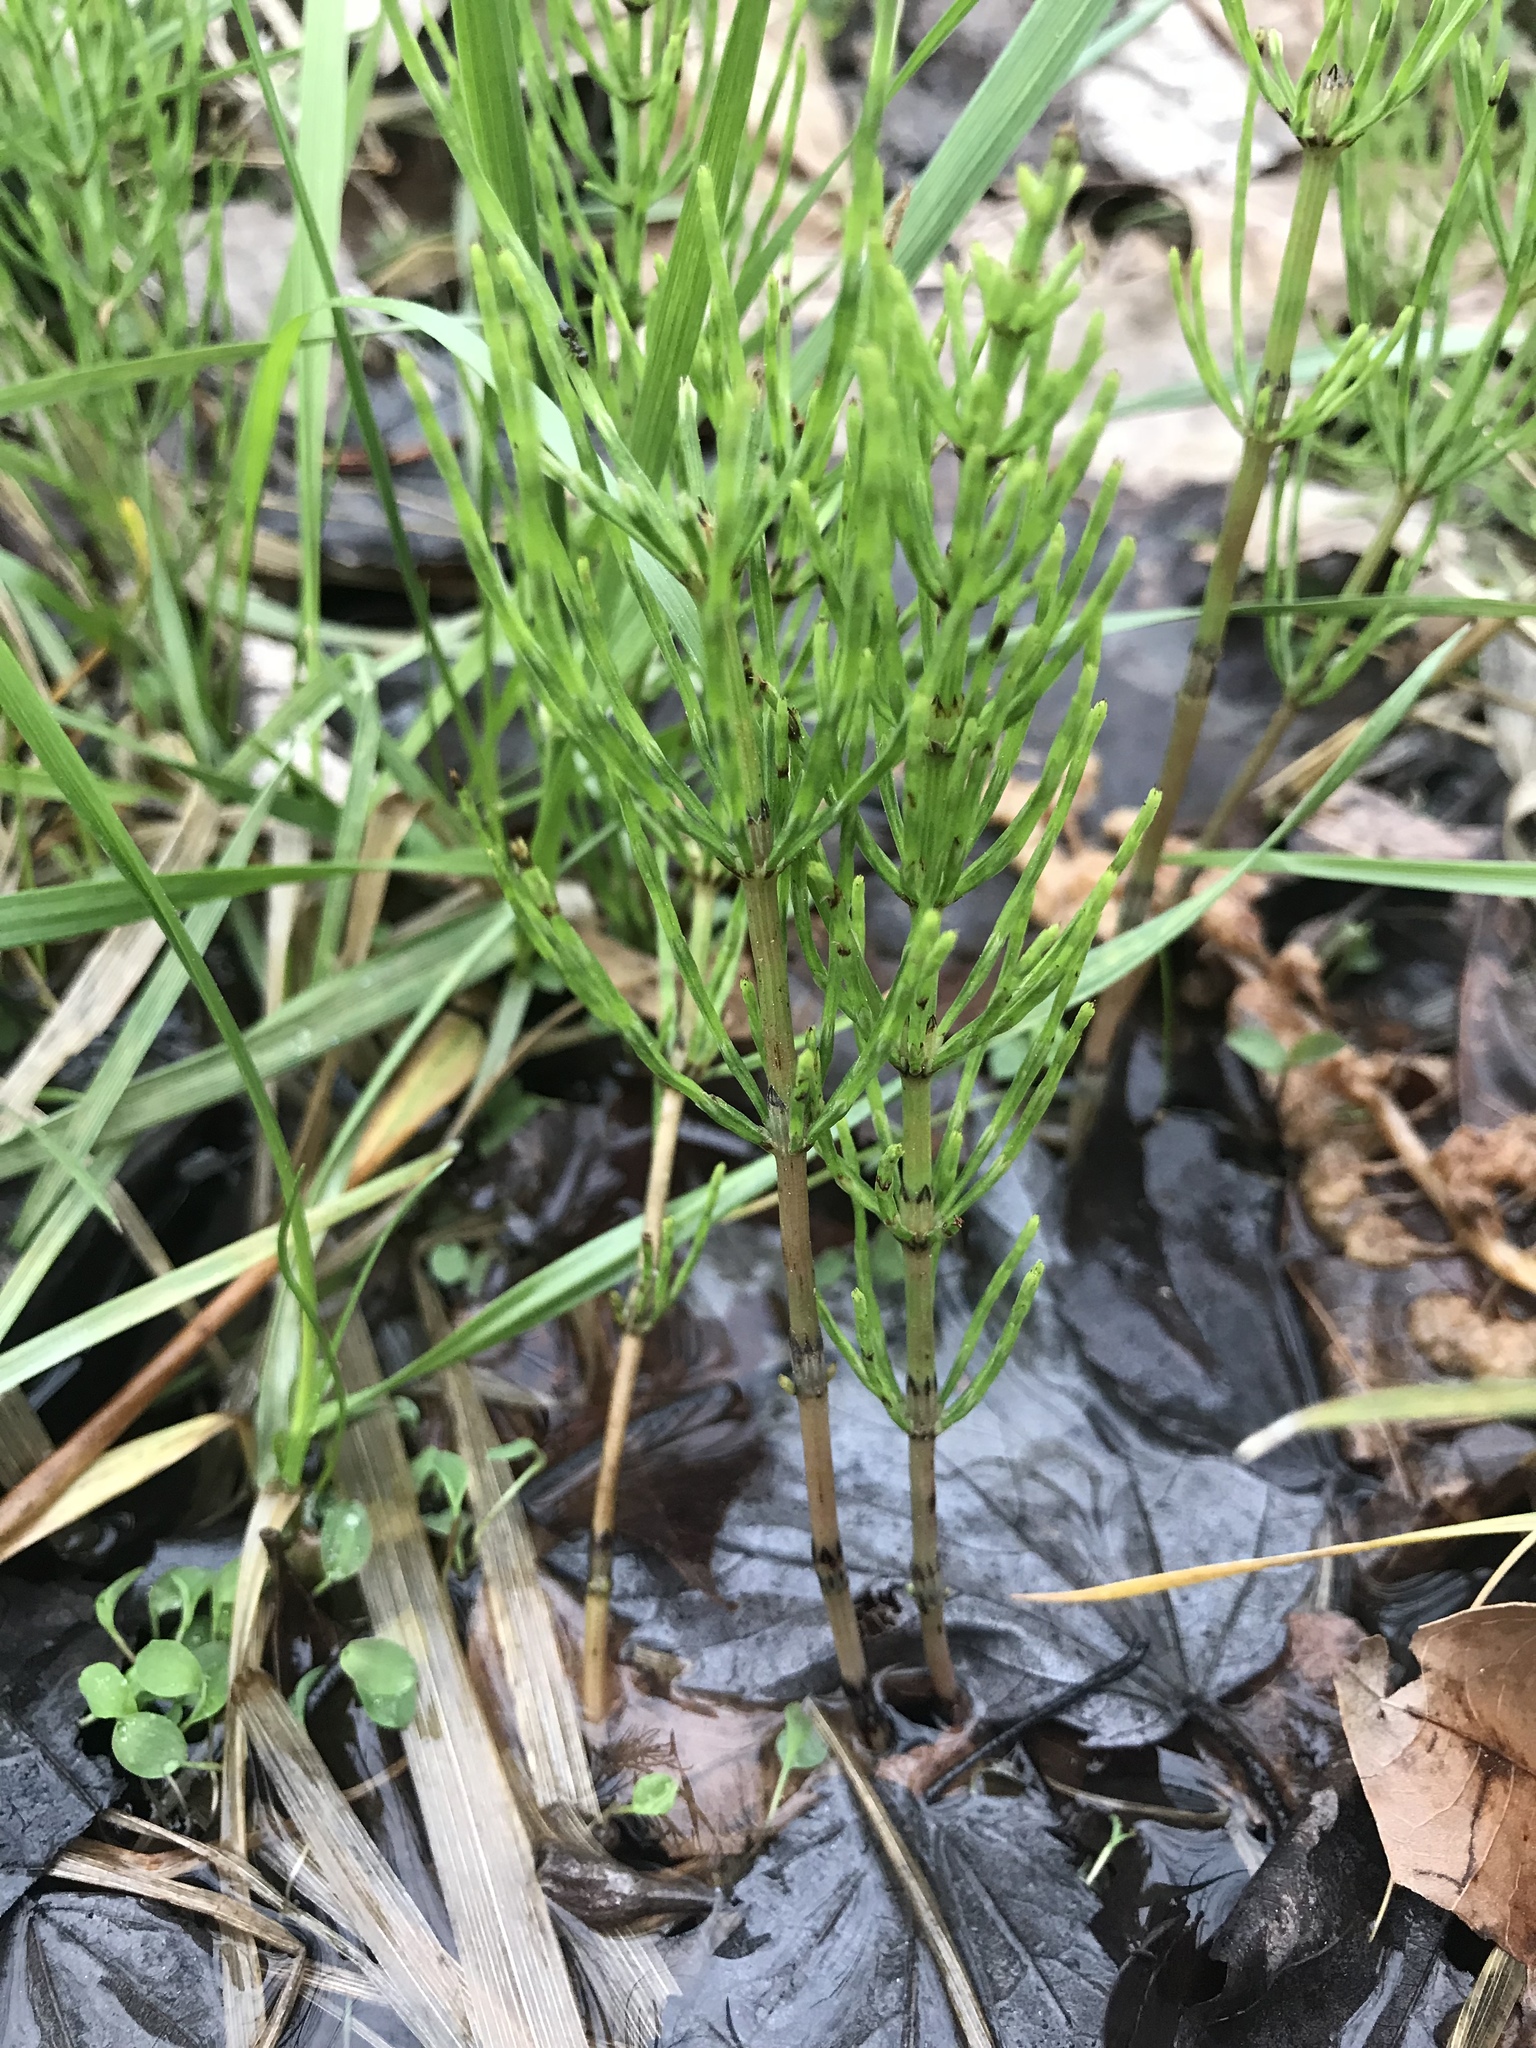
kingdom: Plantae
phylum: Tracheophyta
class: Polypodiopsida
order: Equisetales
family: Equisetaceae
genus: Equisetum
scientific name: Equisetum arvense
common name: Field horsetail
